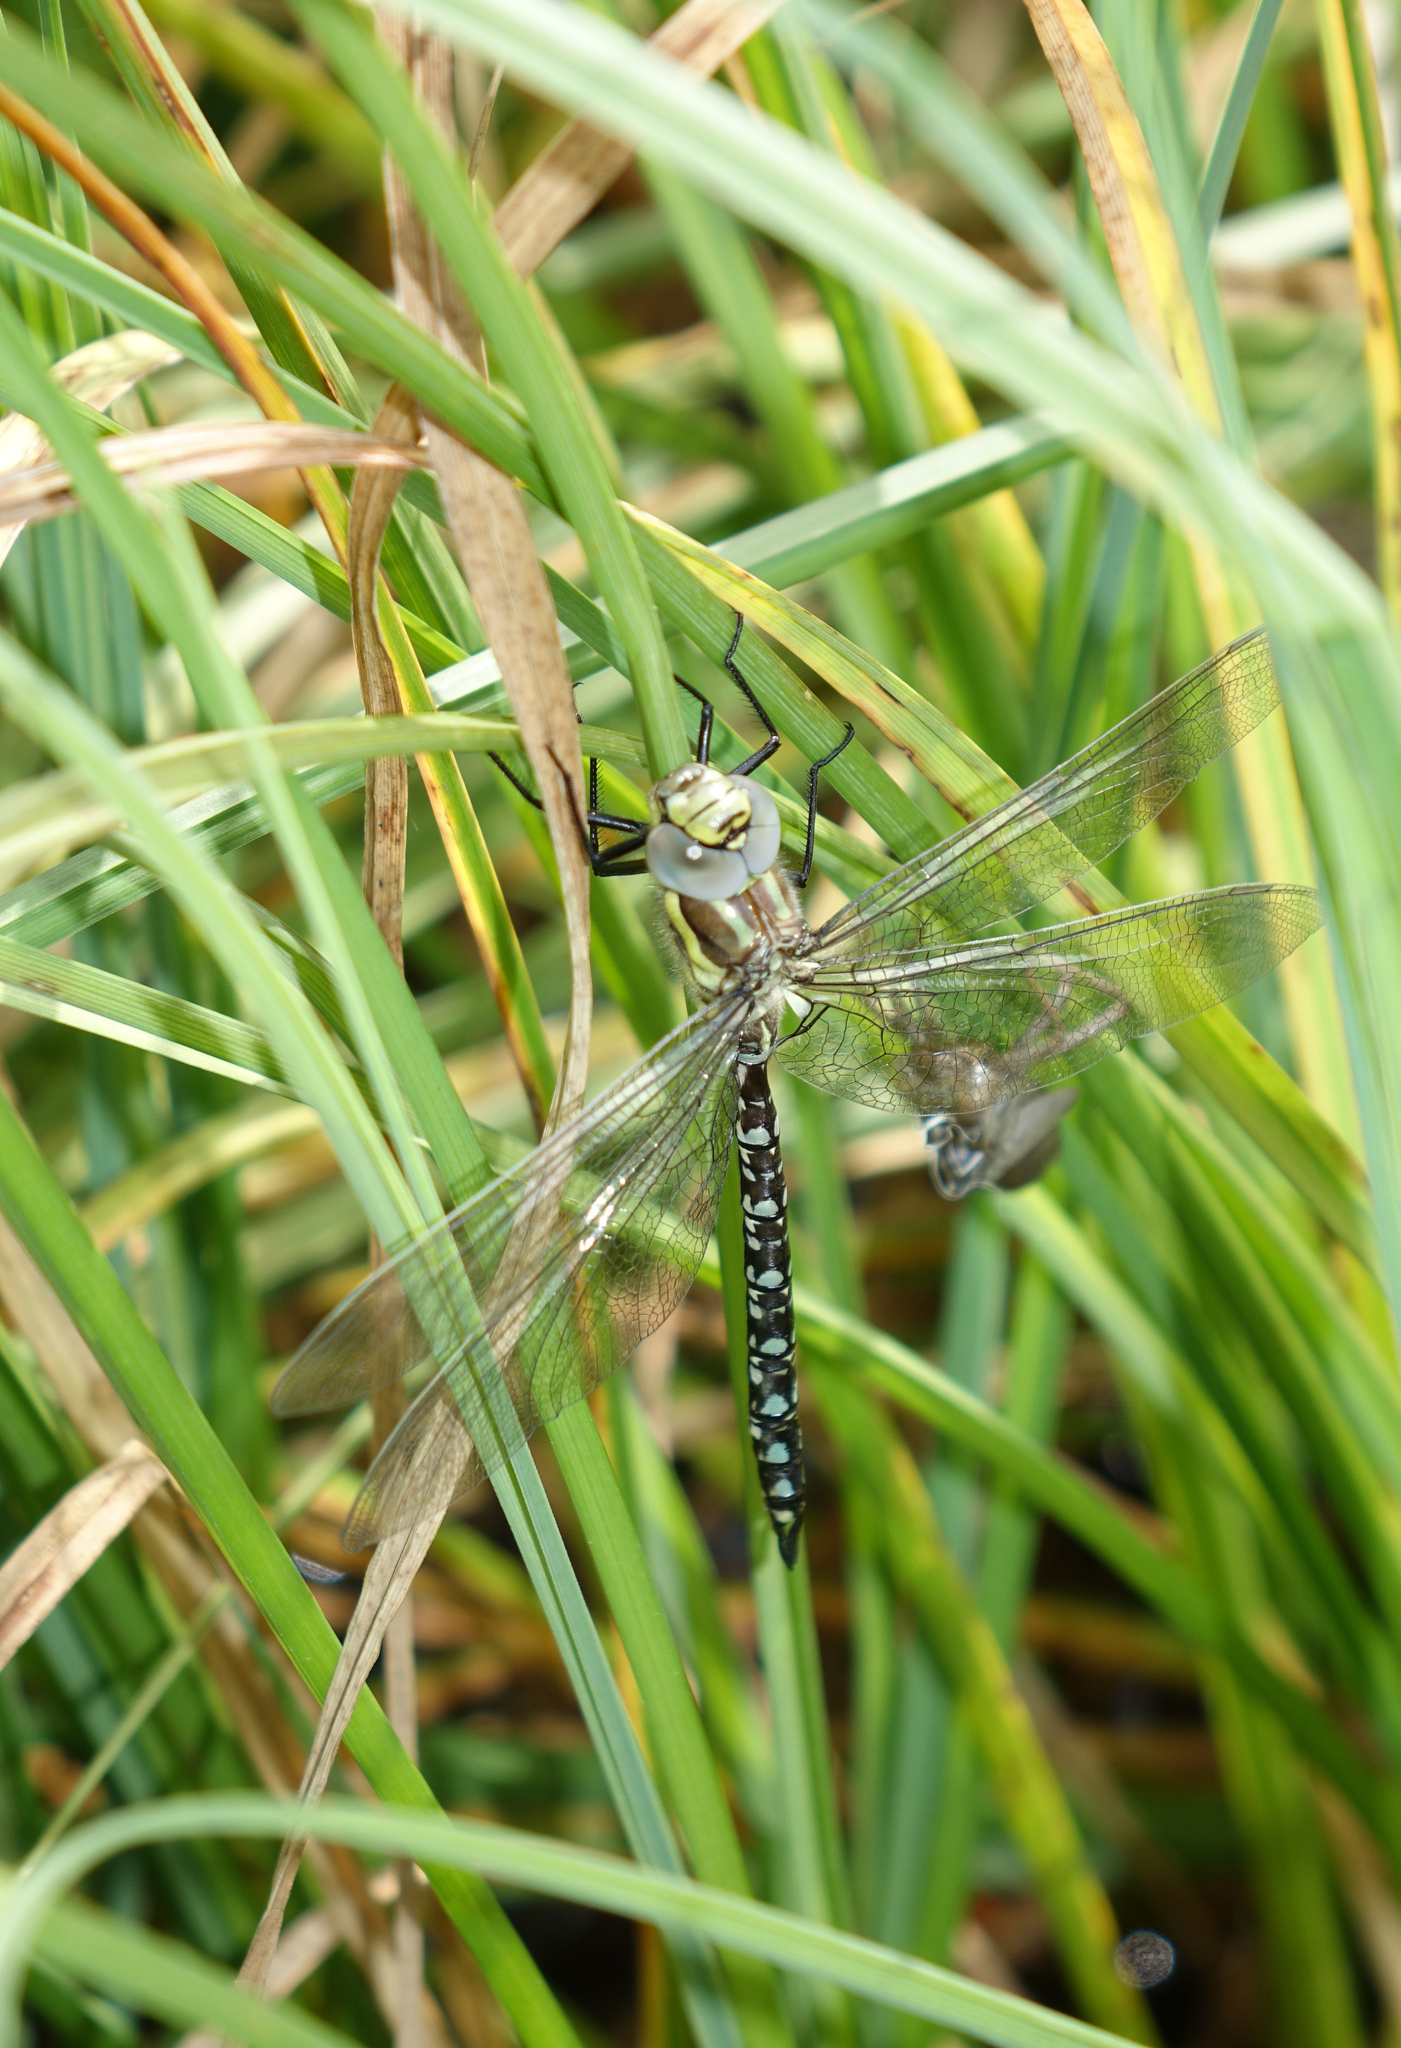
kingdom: Animalia
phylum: Arthropoda
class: Insecta
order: Odonata
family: Aeshnidae
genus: Aeshna
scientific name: Aeshna juncea
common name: Moorland hawker
